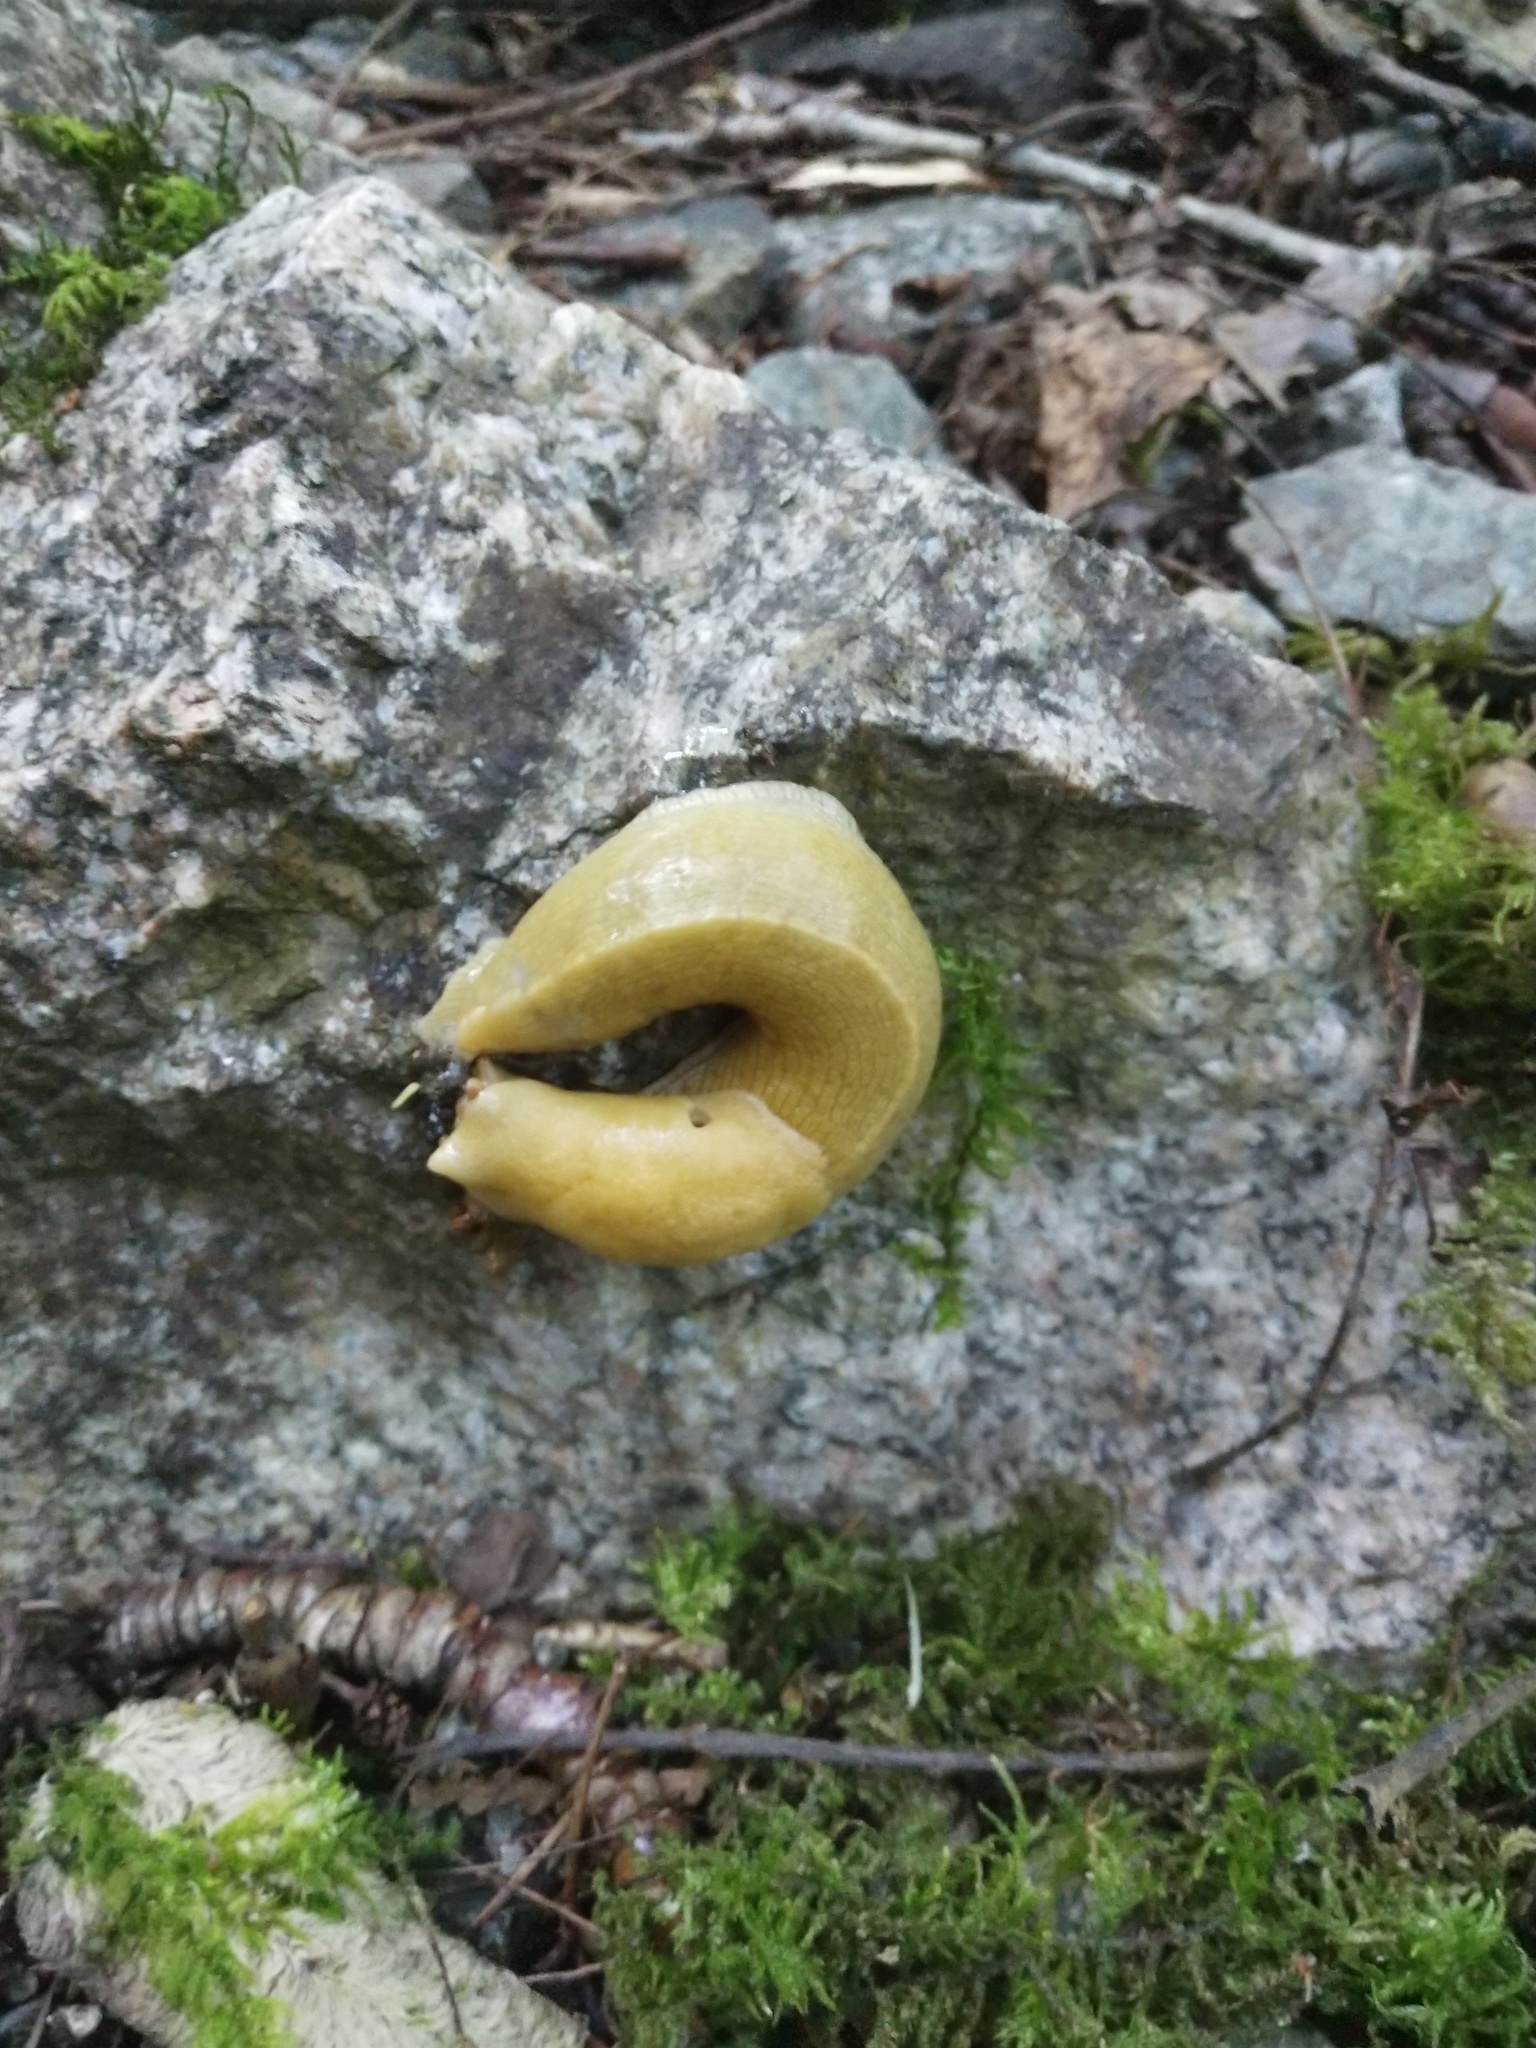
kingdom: Animalia
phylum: Mollusca
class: Gastropoda
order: Stylommatophora
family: Ariolimacidae
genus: Ariolimax
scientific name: Ariolimax columbianus
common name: Pacific banana slug
